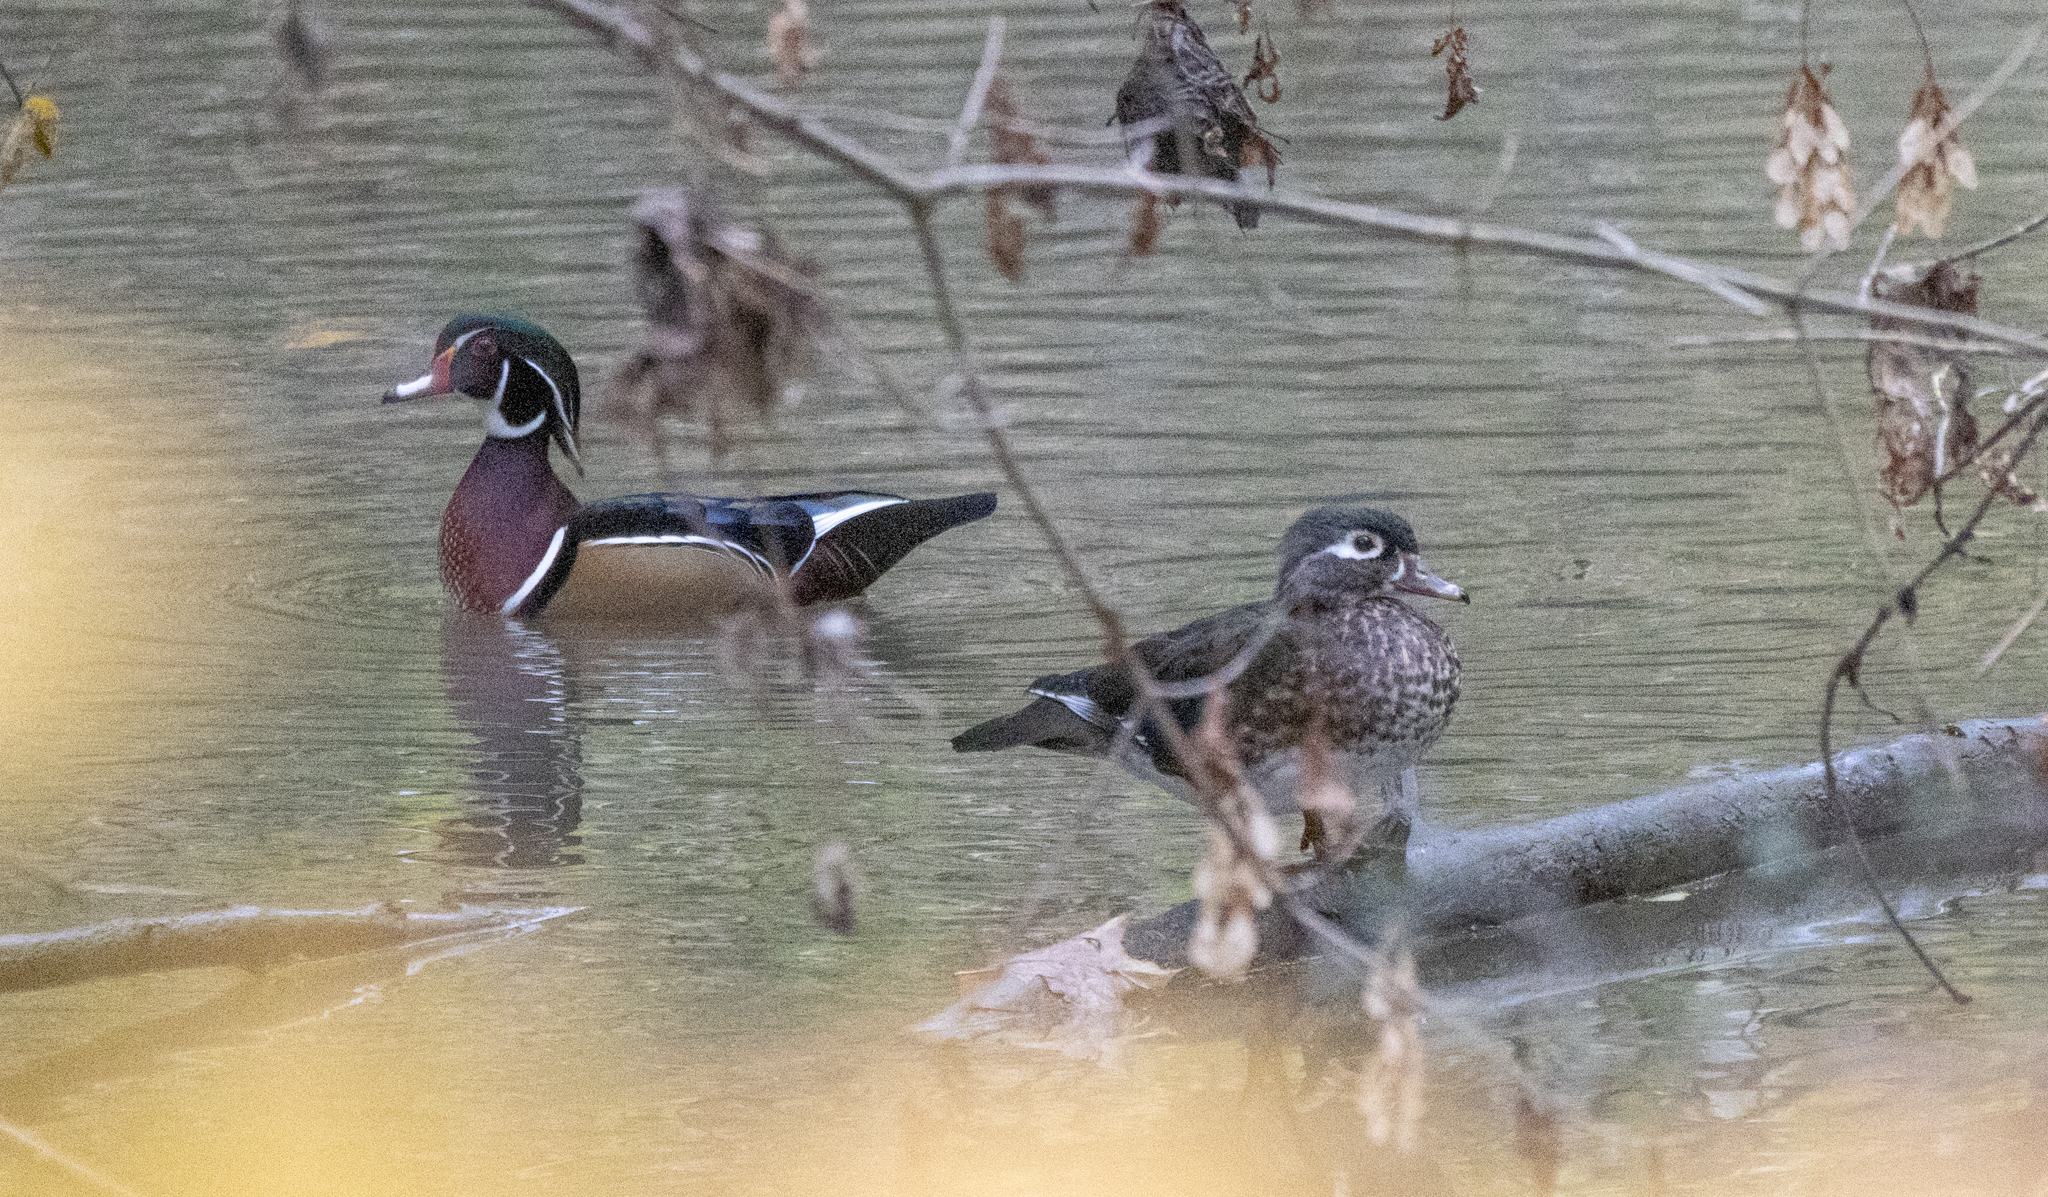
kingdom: Animalia
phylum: Chordata
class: Aves
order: Anseriformes
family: Anatidae
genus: Aix
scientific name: Aix sponsa
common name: Wood duck
